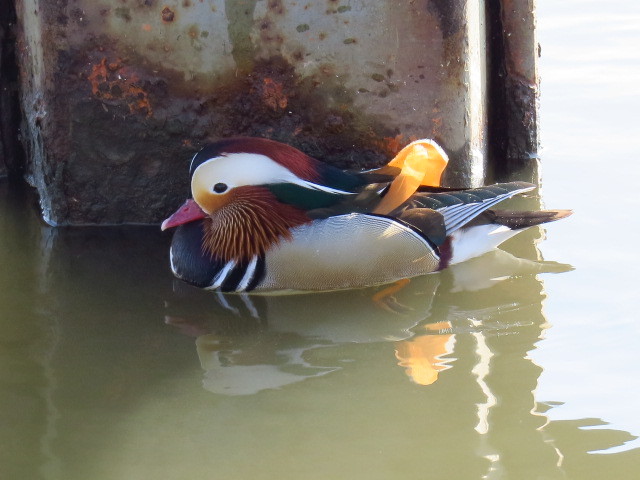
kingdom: Animalia
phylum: Chordata
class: Aves
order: Anseriformes
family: Anatidae
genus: Aix
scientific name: Aix galericulata
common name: Mandarin duck
